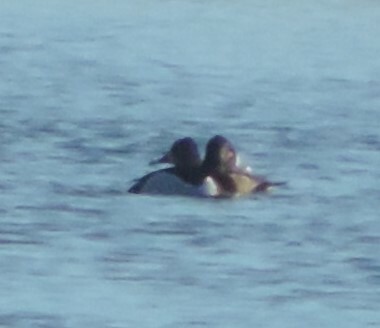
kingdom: Animalia
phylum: Chordata
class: Aves
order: Anseriformes
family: Anatidae
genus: Aythya
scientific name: Aythya collaris
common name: Ring-necked duck
